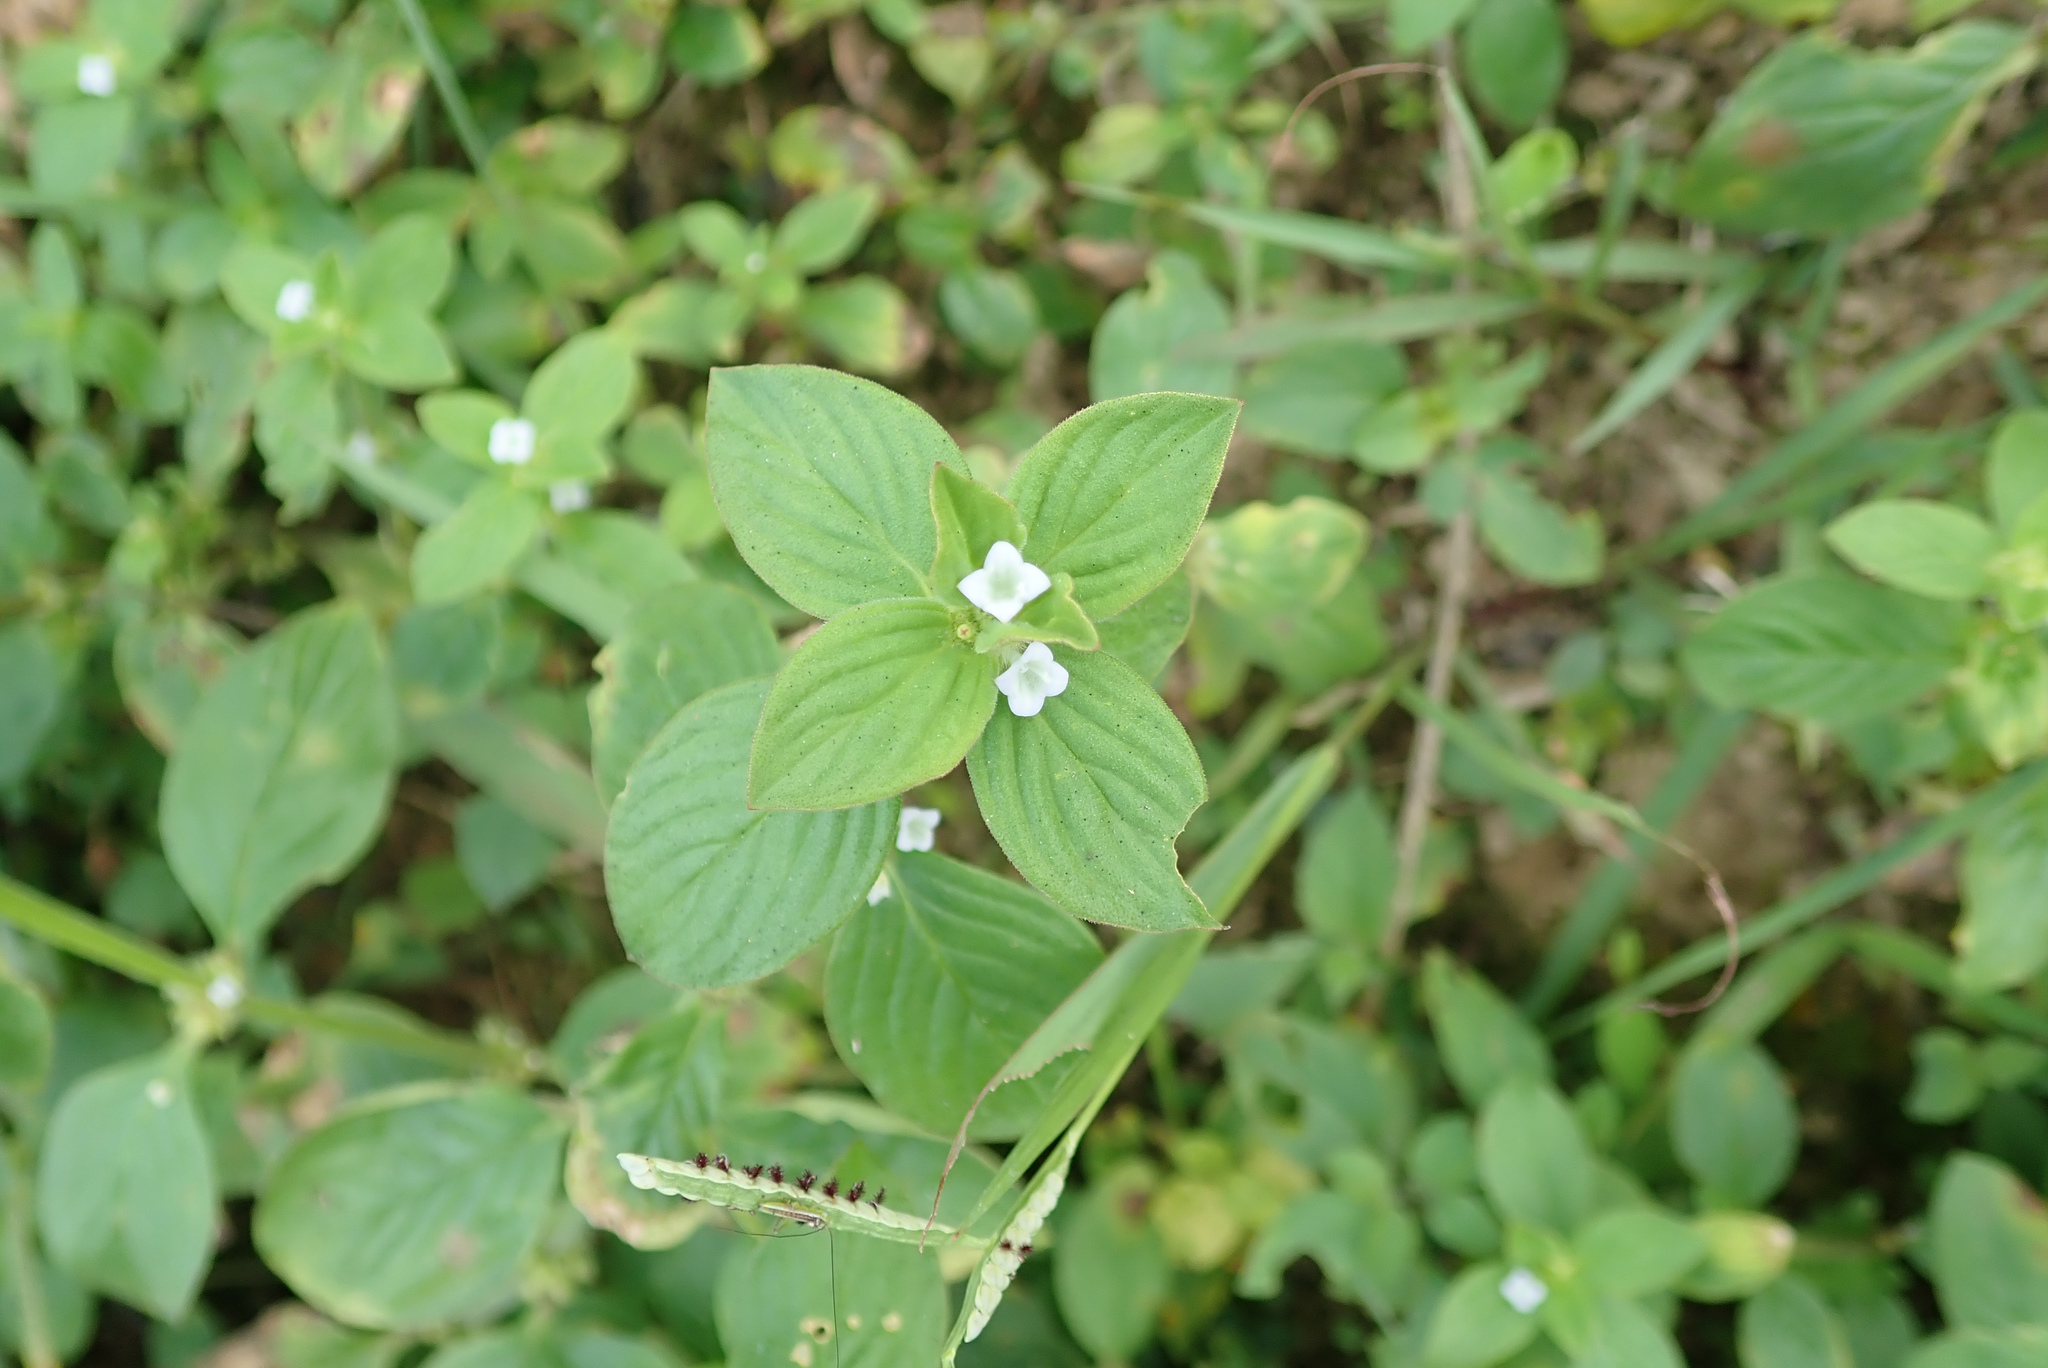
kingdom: Plantae
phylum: Tracheophyta
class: Magnoliopsida
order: Gentianales
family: Rubiaceae
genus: Spermacoce
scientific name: Spermacoce latifolia
